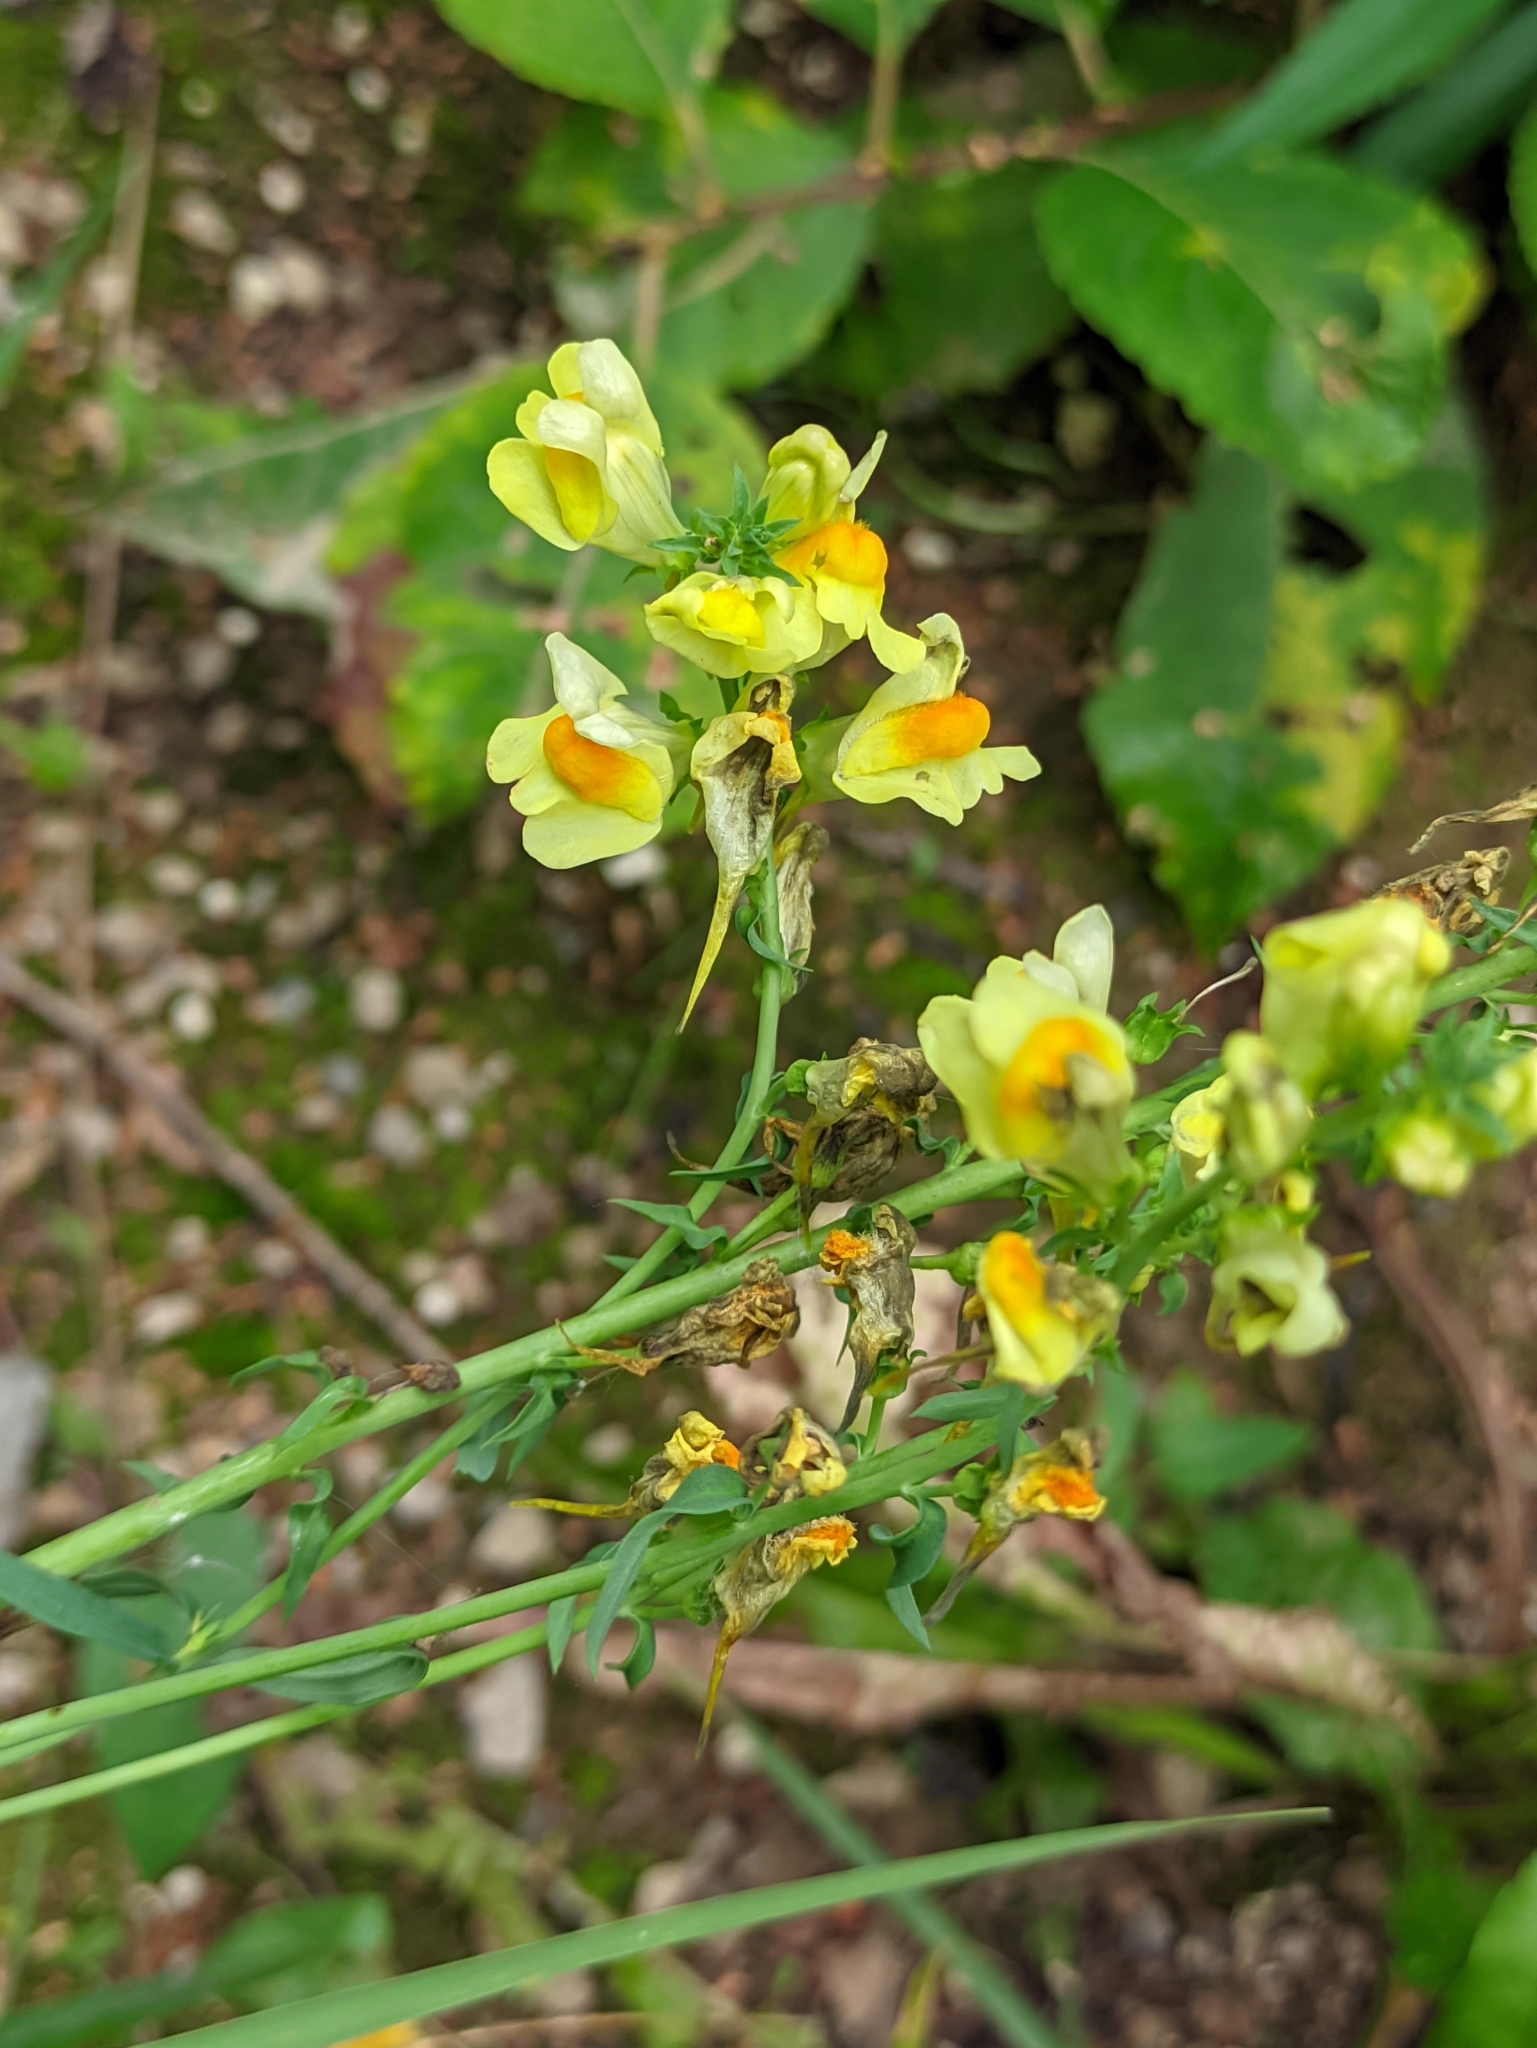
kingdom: Plantae
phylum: Tracheophyta
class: Magnoliopsida
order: Lamiales
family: Plantaginaceae
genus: Linaria
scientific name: Linaria vulgaris
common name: Butter and eggs
